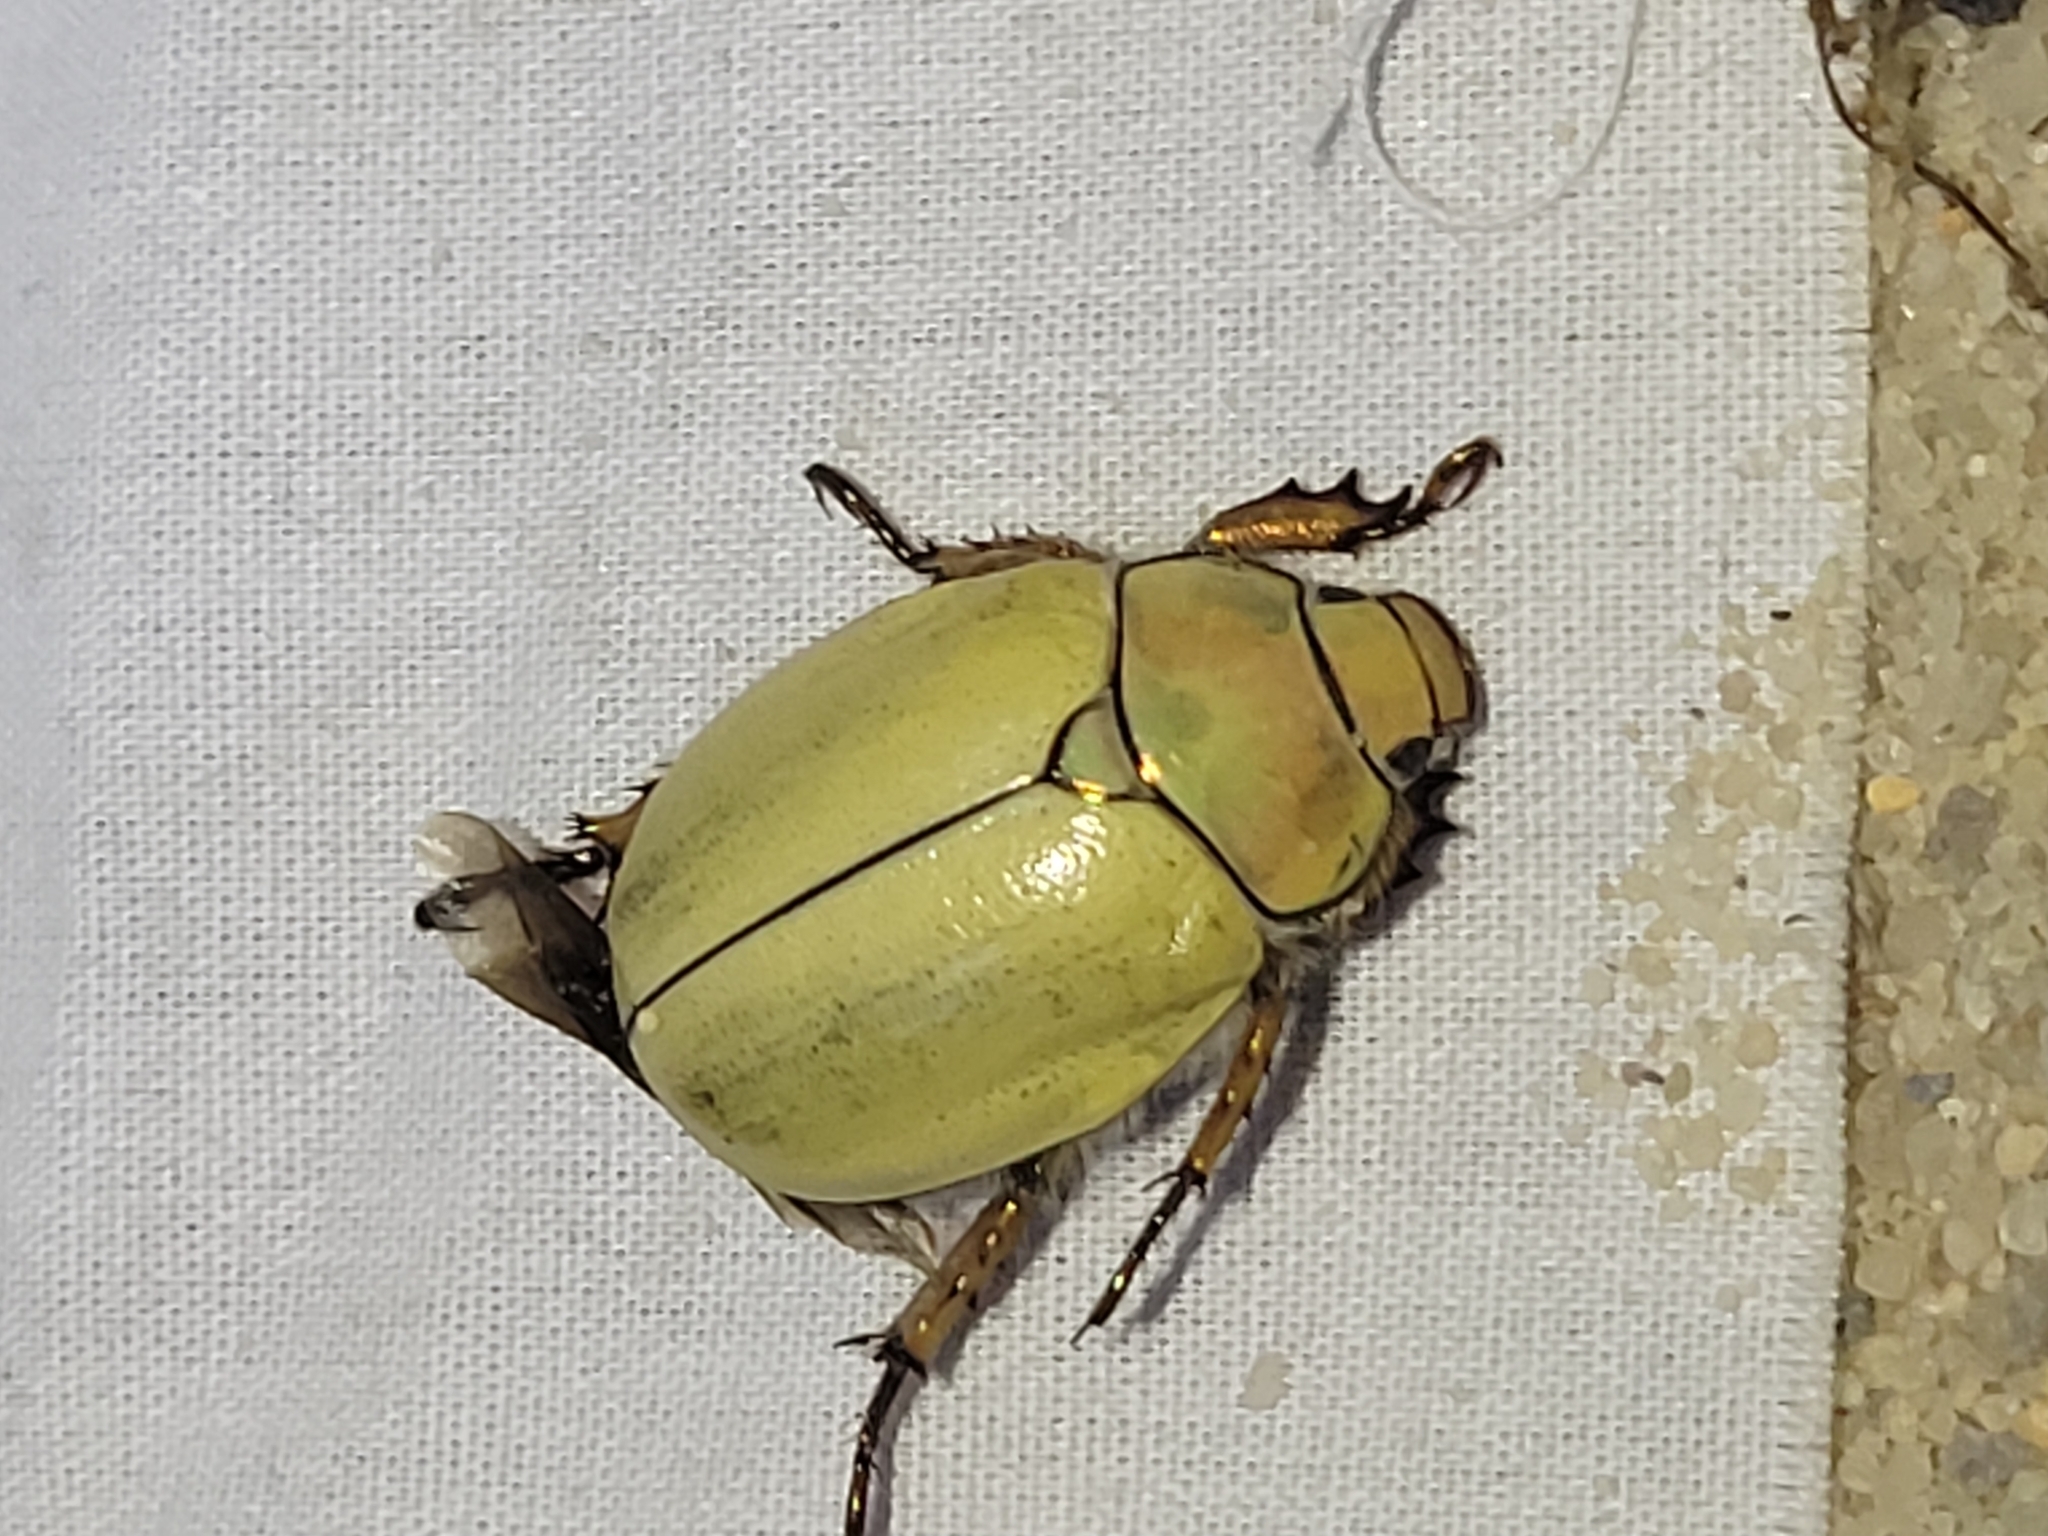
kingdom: Animalia
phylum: Arthropoda
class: Insecta
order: Coleoptera
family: Scarabaeidae
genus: Cotalpa
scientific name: Cotalpa lanigera
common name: Goldsmith beetle
